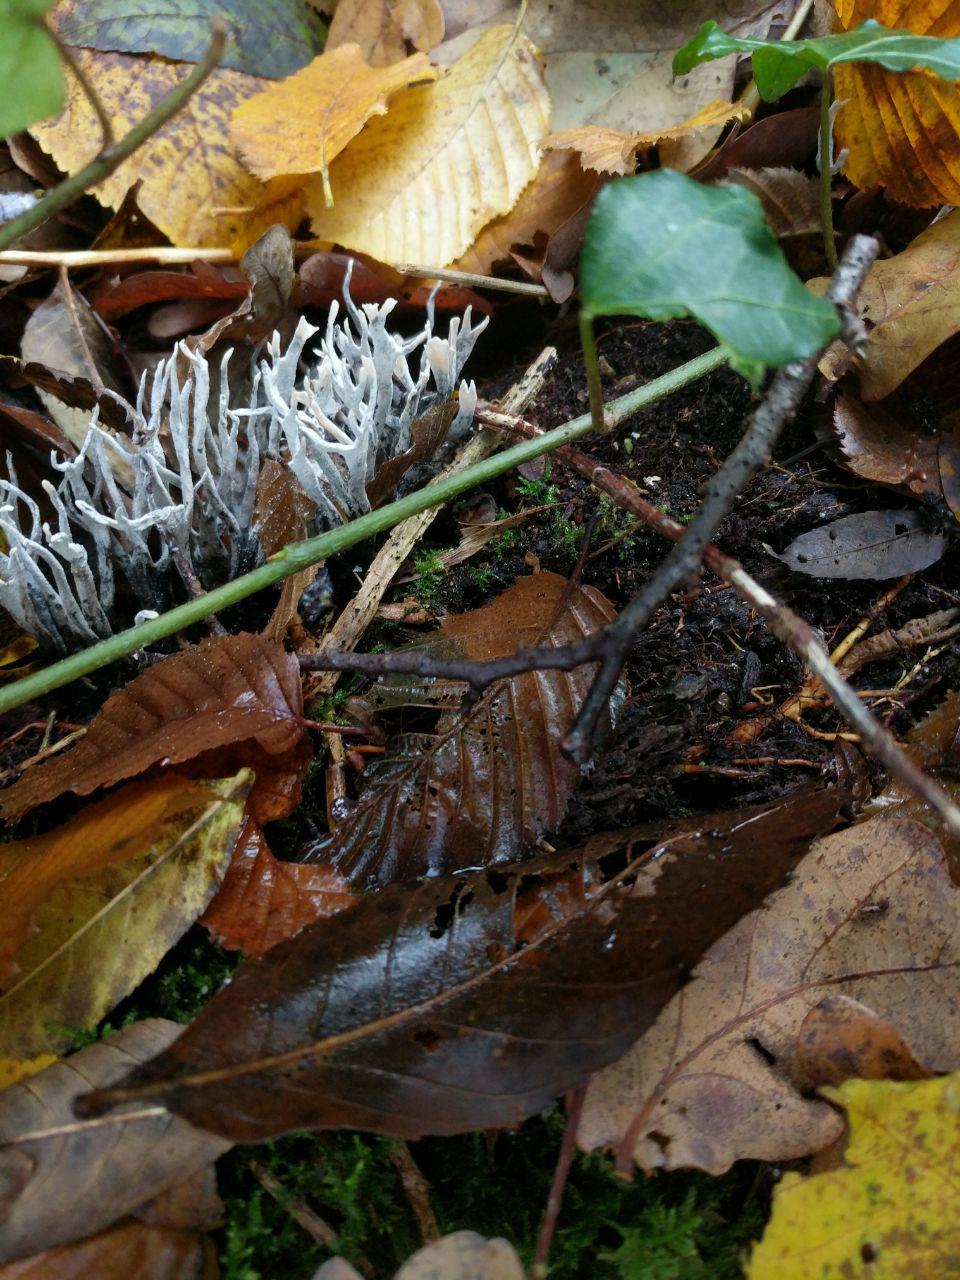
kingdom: Fungi
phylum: Ascomycota
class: Sordariomycetes
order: Xylariales
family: Xylariaceae
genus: Xylaria
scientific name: Xylaria hypoxylon
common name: Candle-snuff fungus
